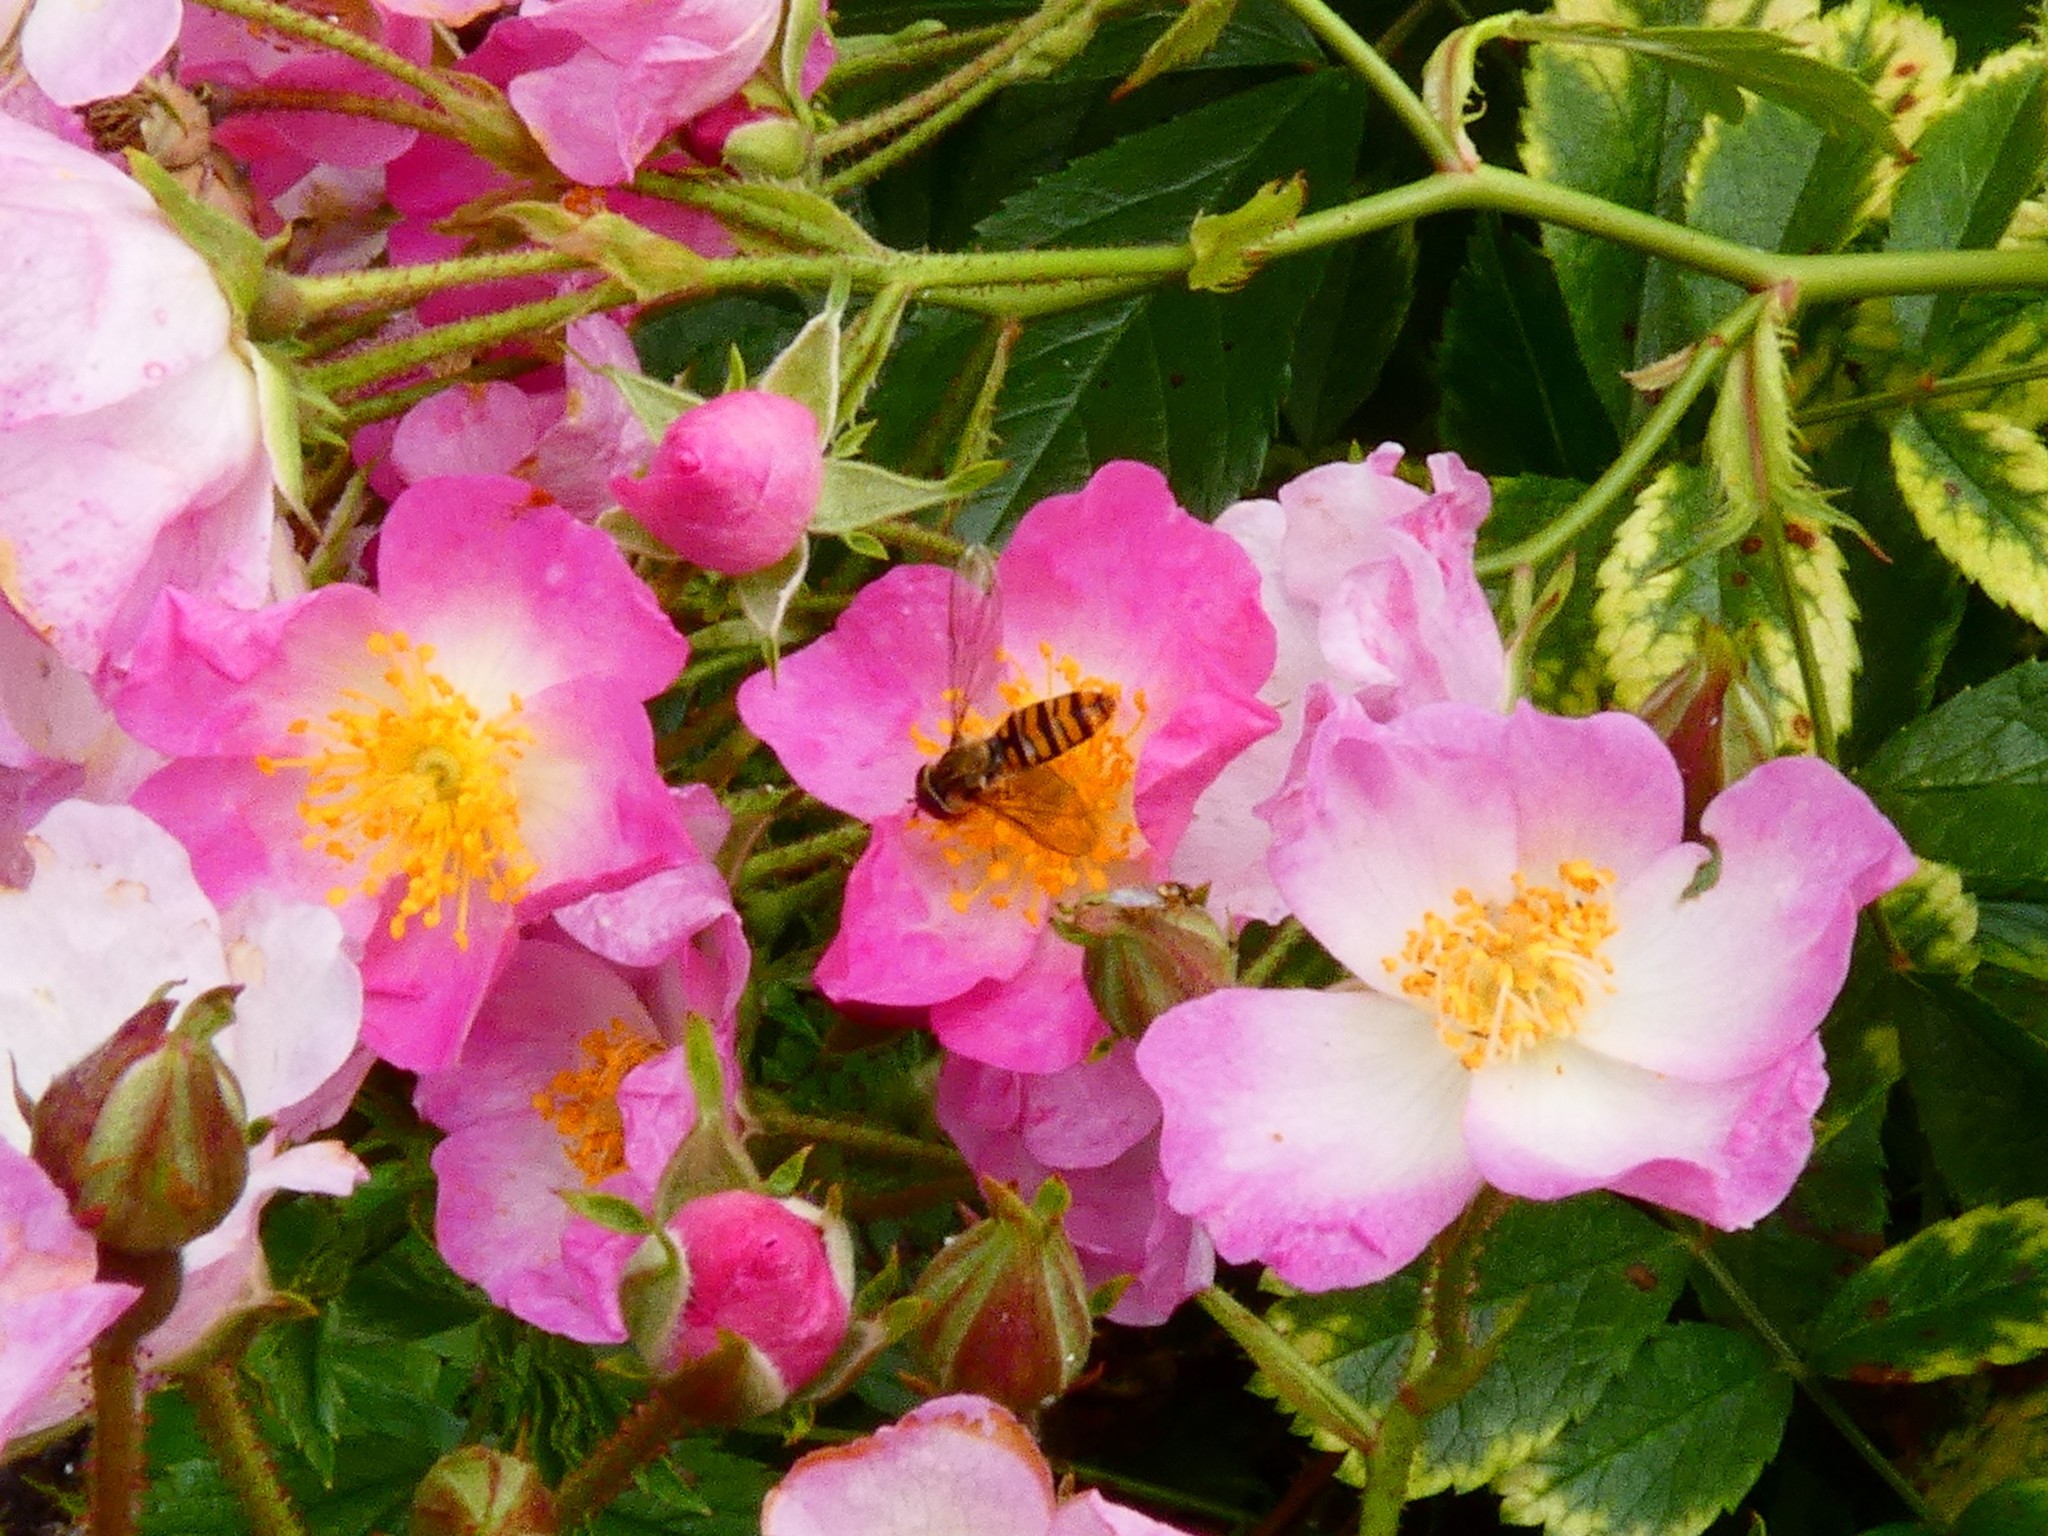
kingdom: Animalia
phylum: Arthropoda
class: Insecta
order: Diptera
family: Syrphidae
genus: Episyrphus
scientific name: Episyrphus balteatus
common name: Marmalade hoverfly
